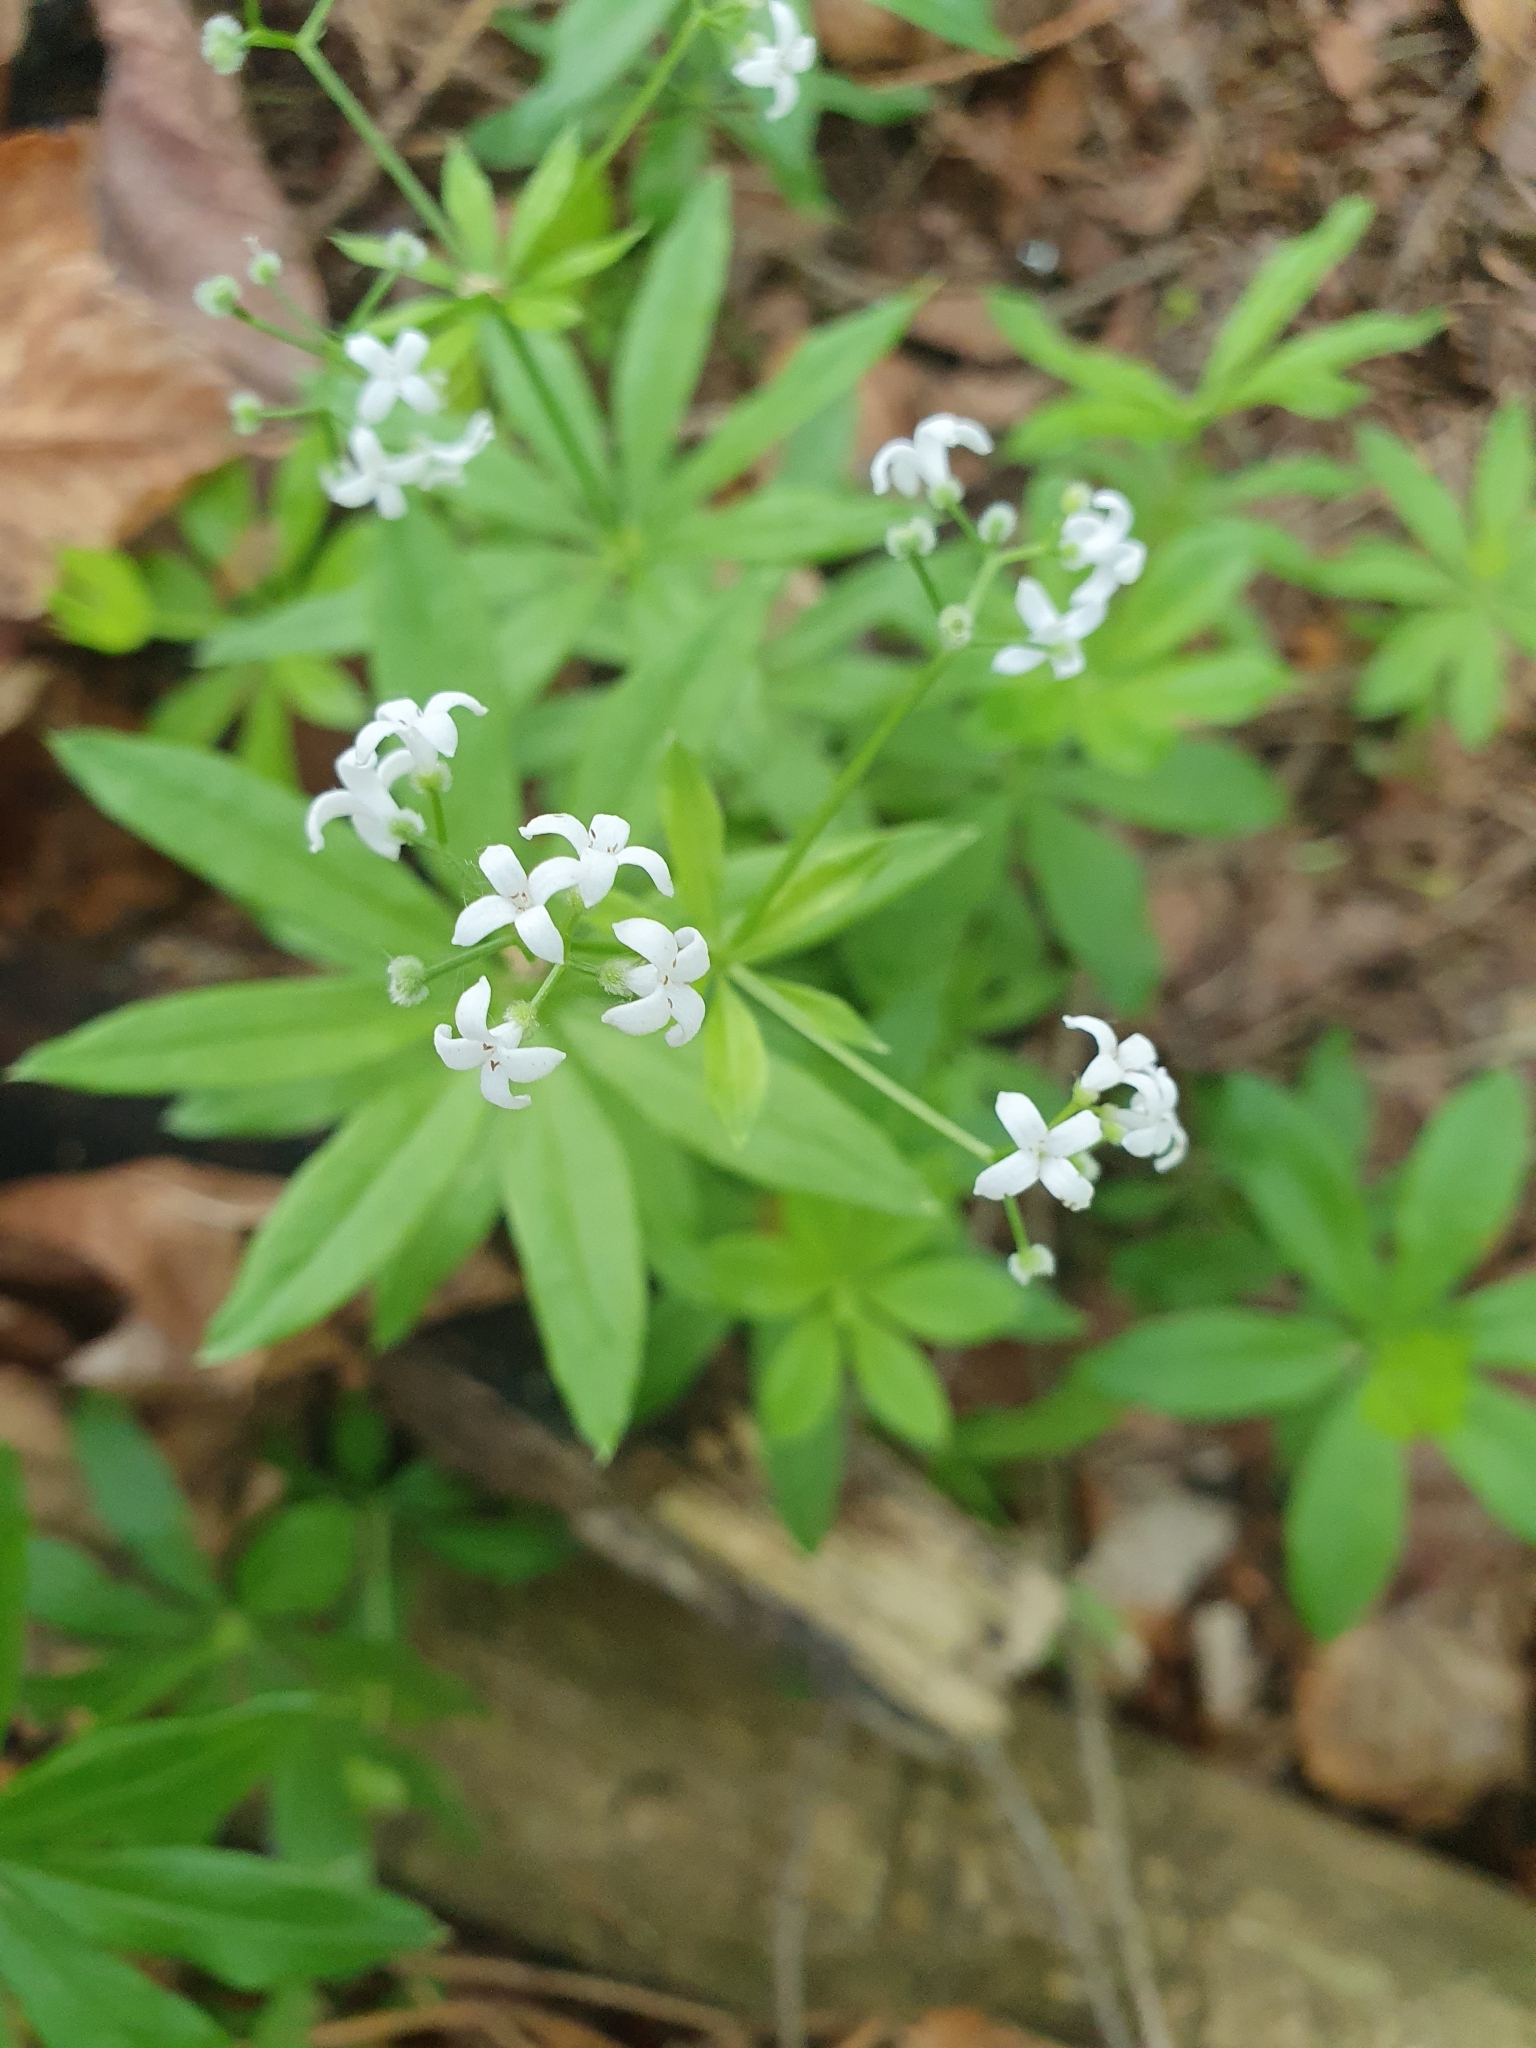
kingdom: Plantae
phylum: Tracheophyta
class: Magnoliopsida
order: Gentianales
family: Rubiaceae
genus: Galium
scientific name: Galium odoratum
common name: Sweet woodruff
